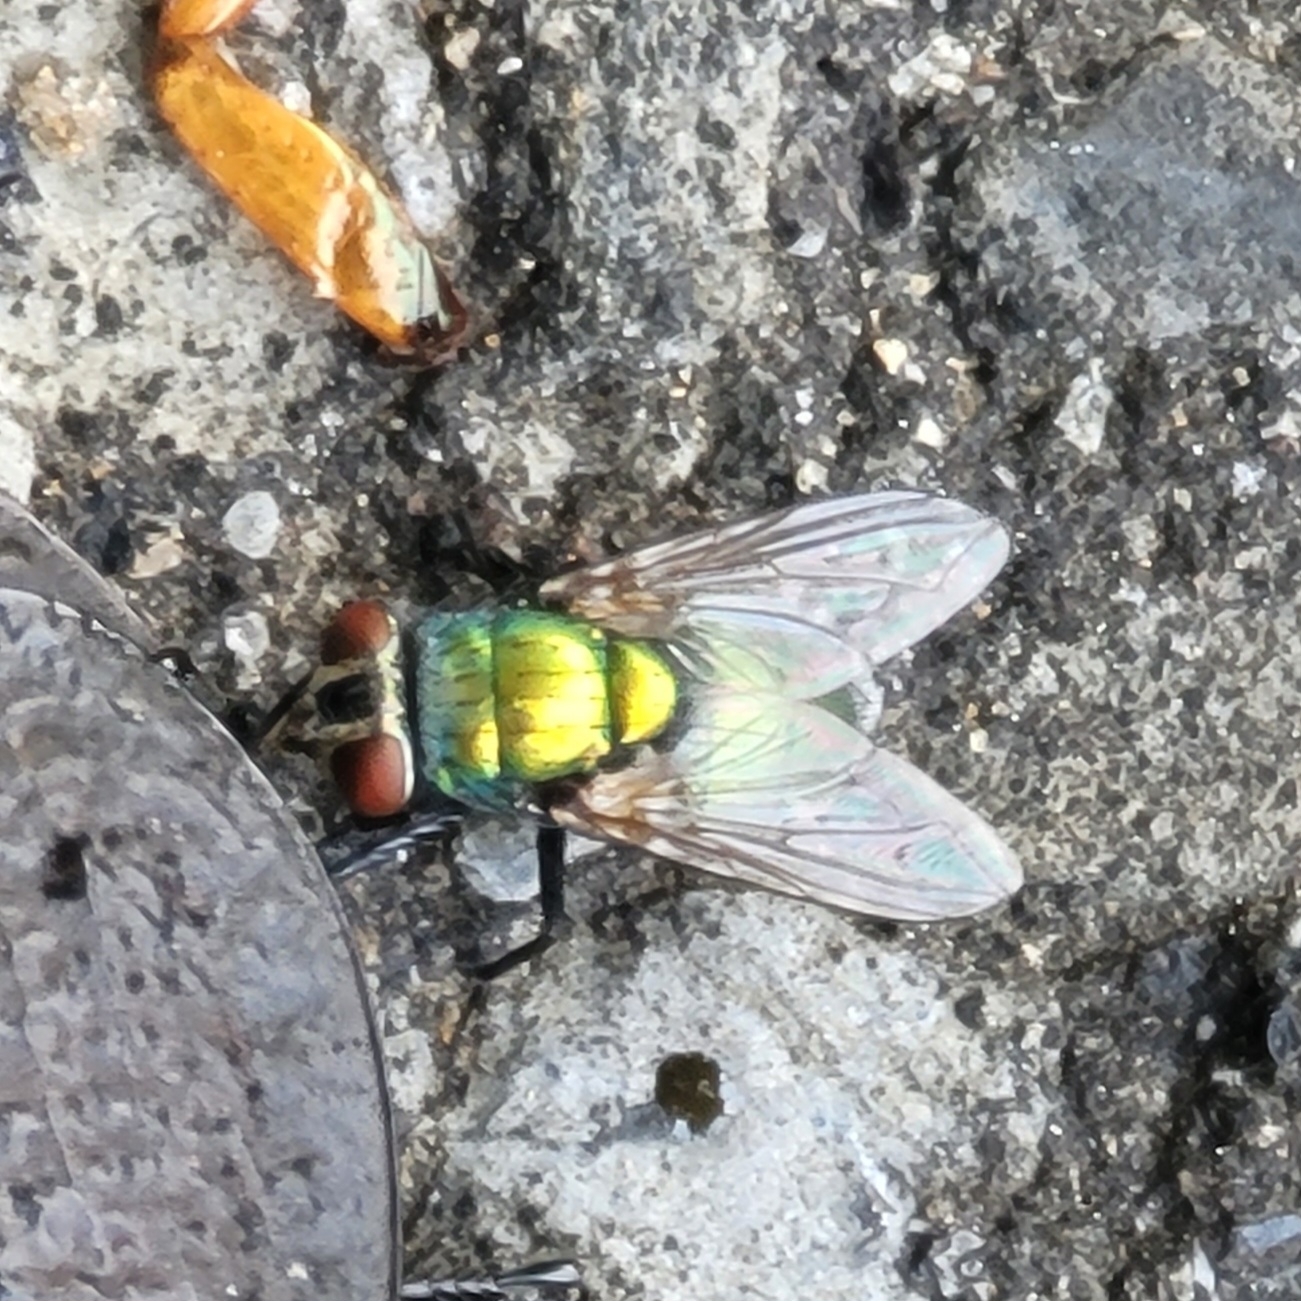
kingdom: Animalia
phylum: Arthropoda
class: Insecta
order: Diptera
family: Calliphoridae
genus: Lucilia
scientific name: Lucilia sericata
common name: Blow fly
